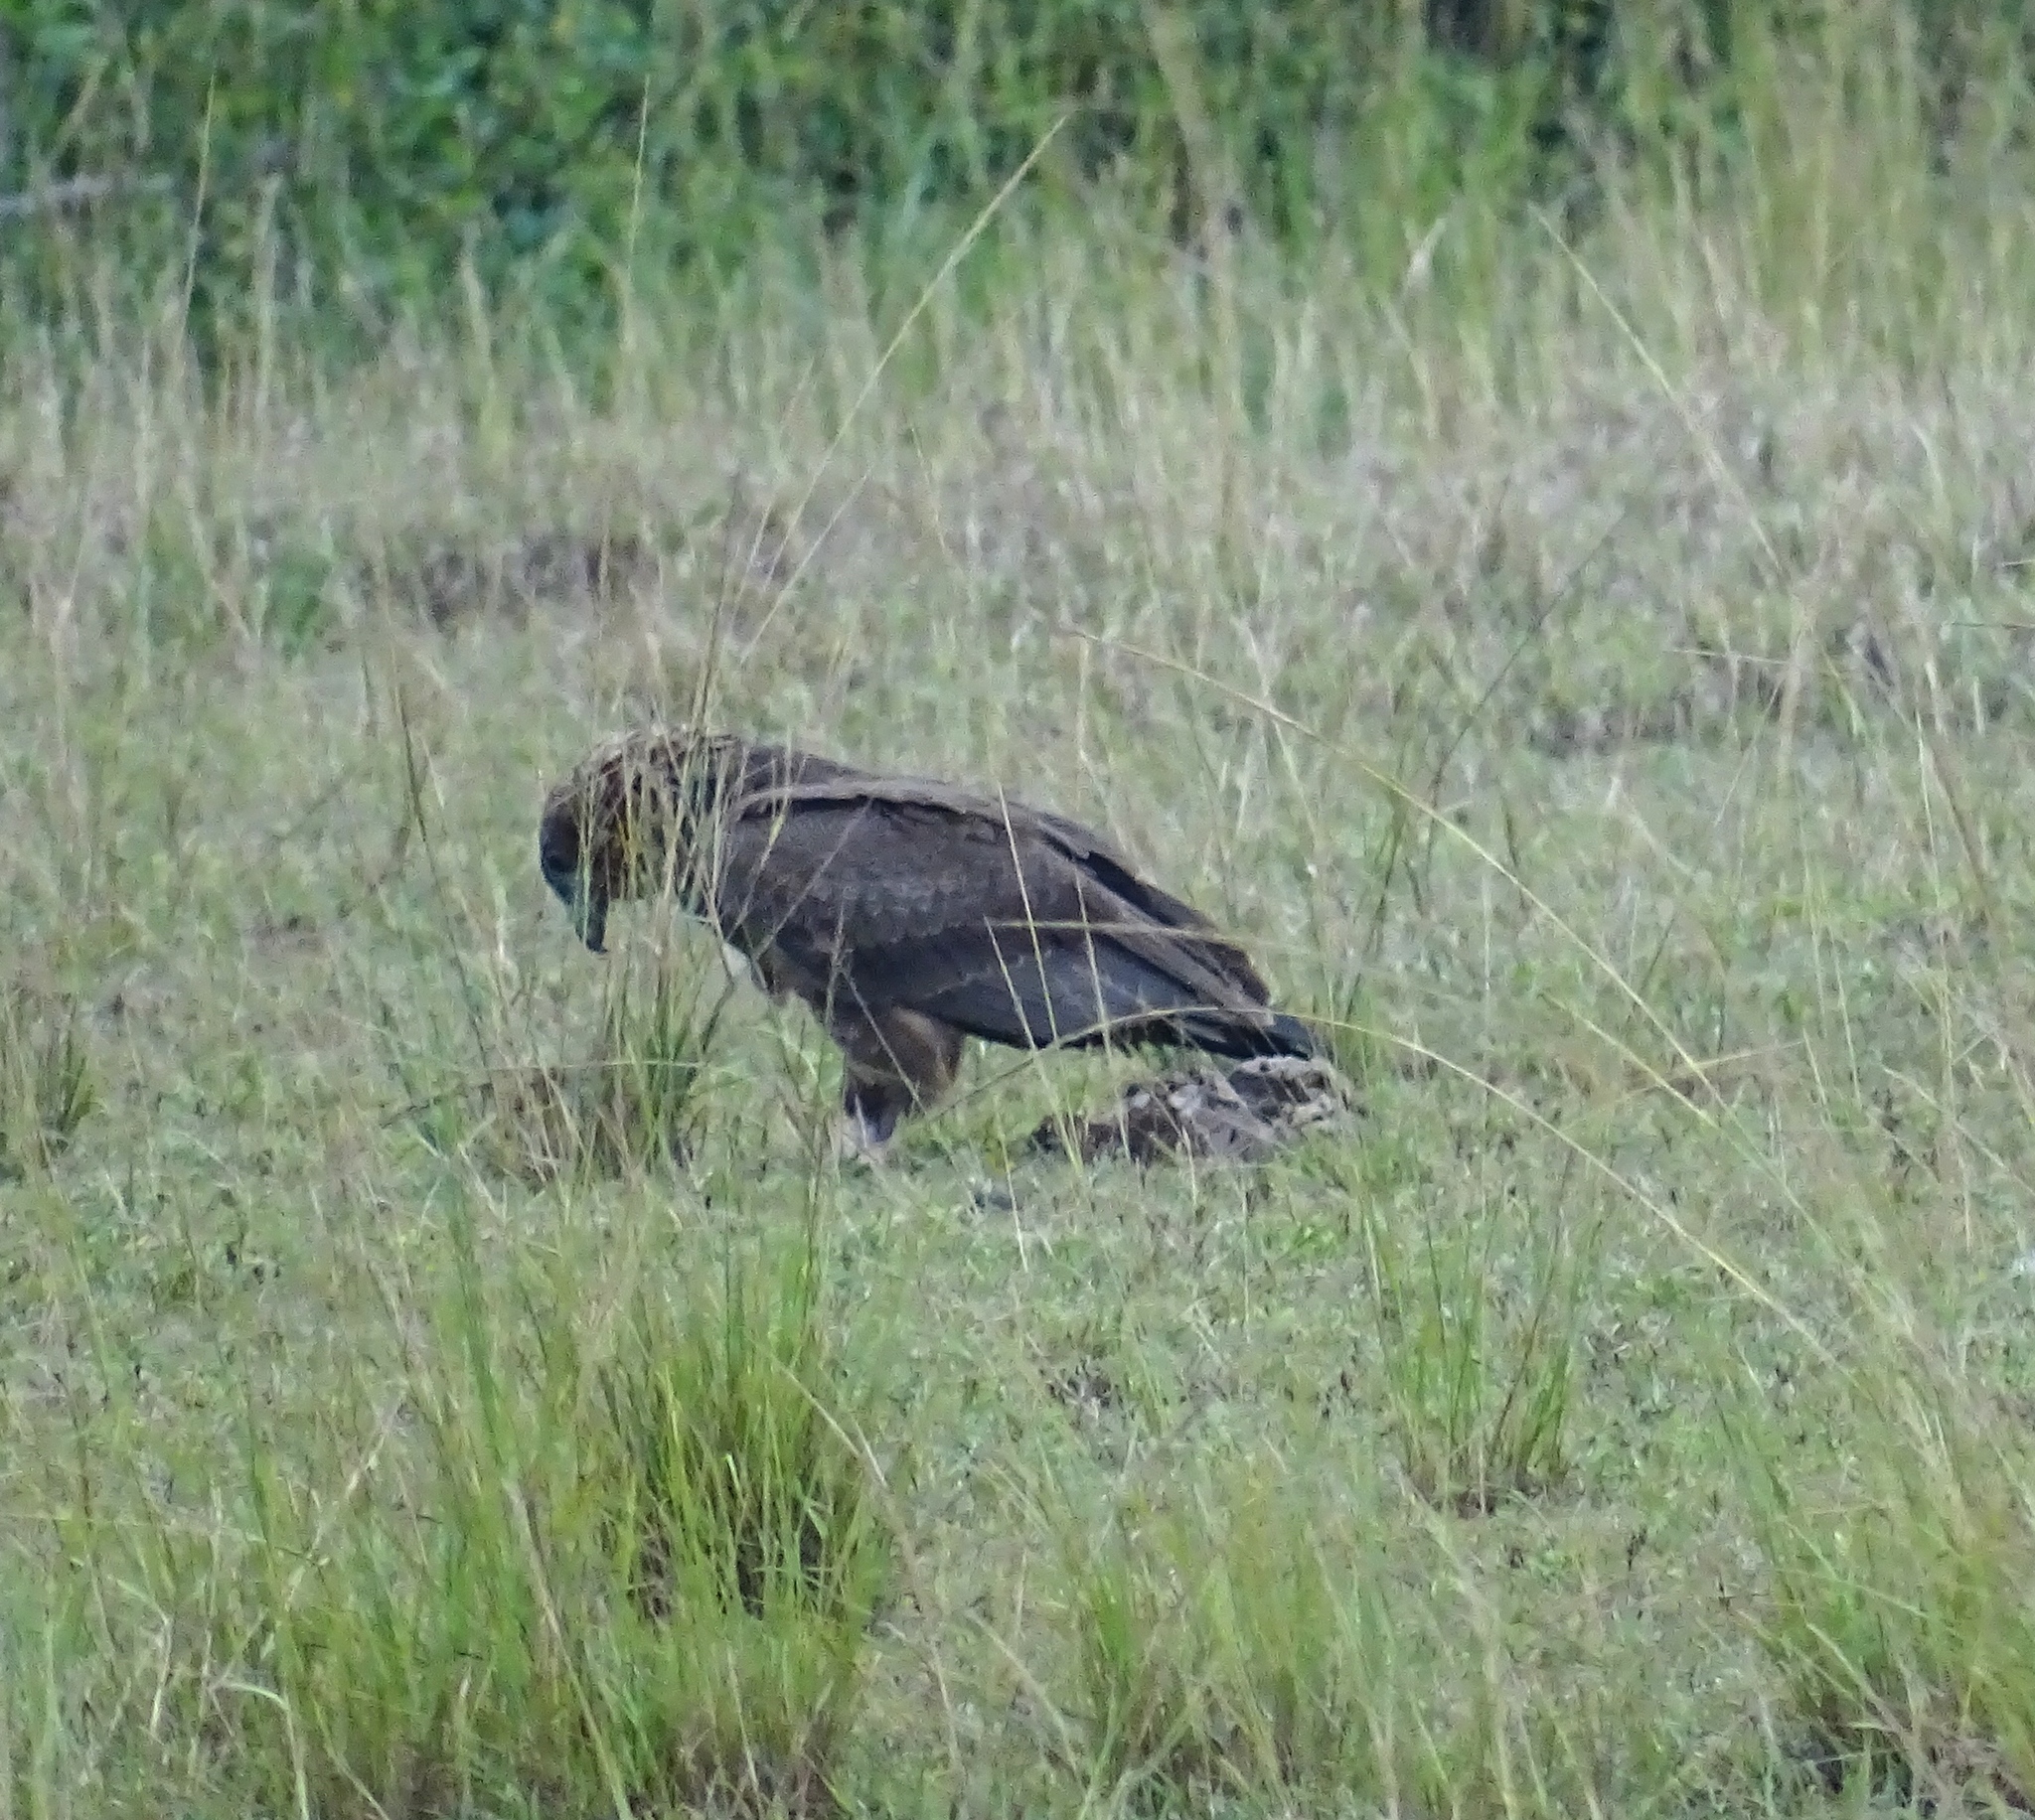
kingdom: Animalia
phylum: Chordata
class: Aves
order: Accipitriformes
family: Accipitridae
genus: Terathopius
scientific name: Terathopius ecaudatus
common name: Bateleur
